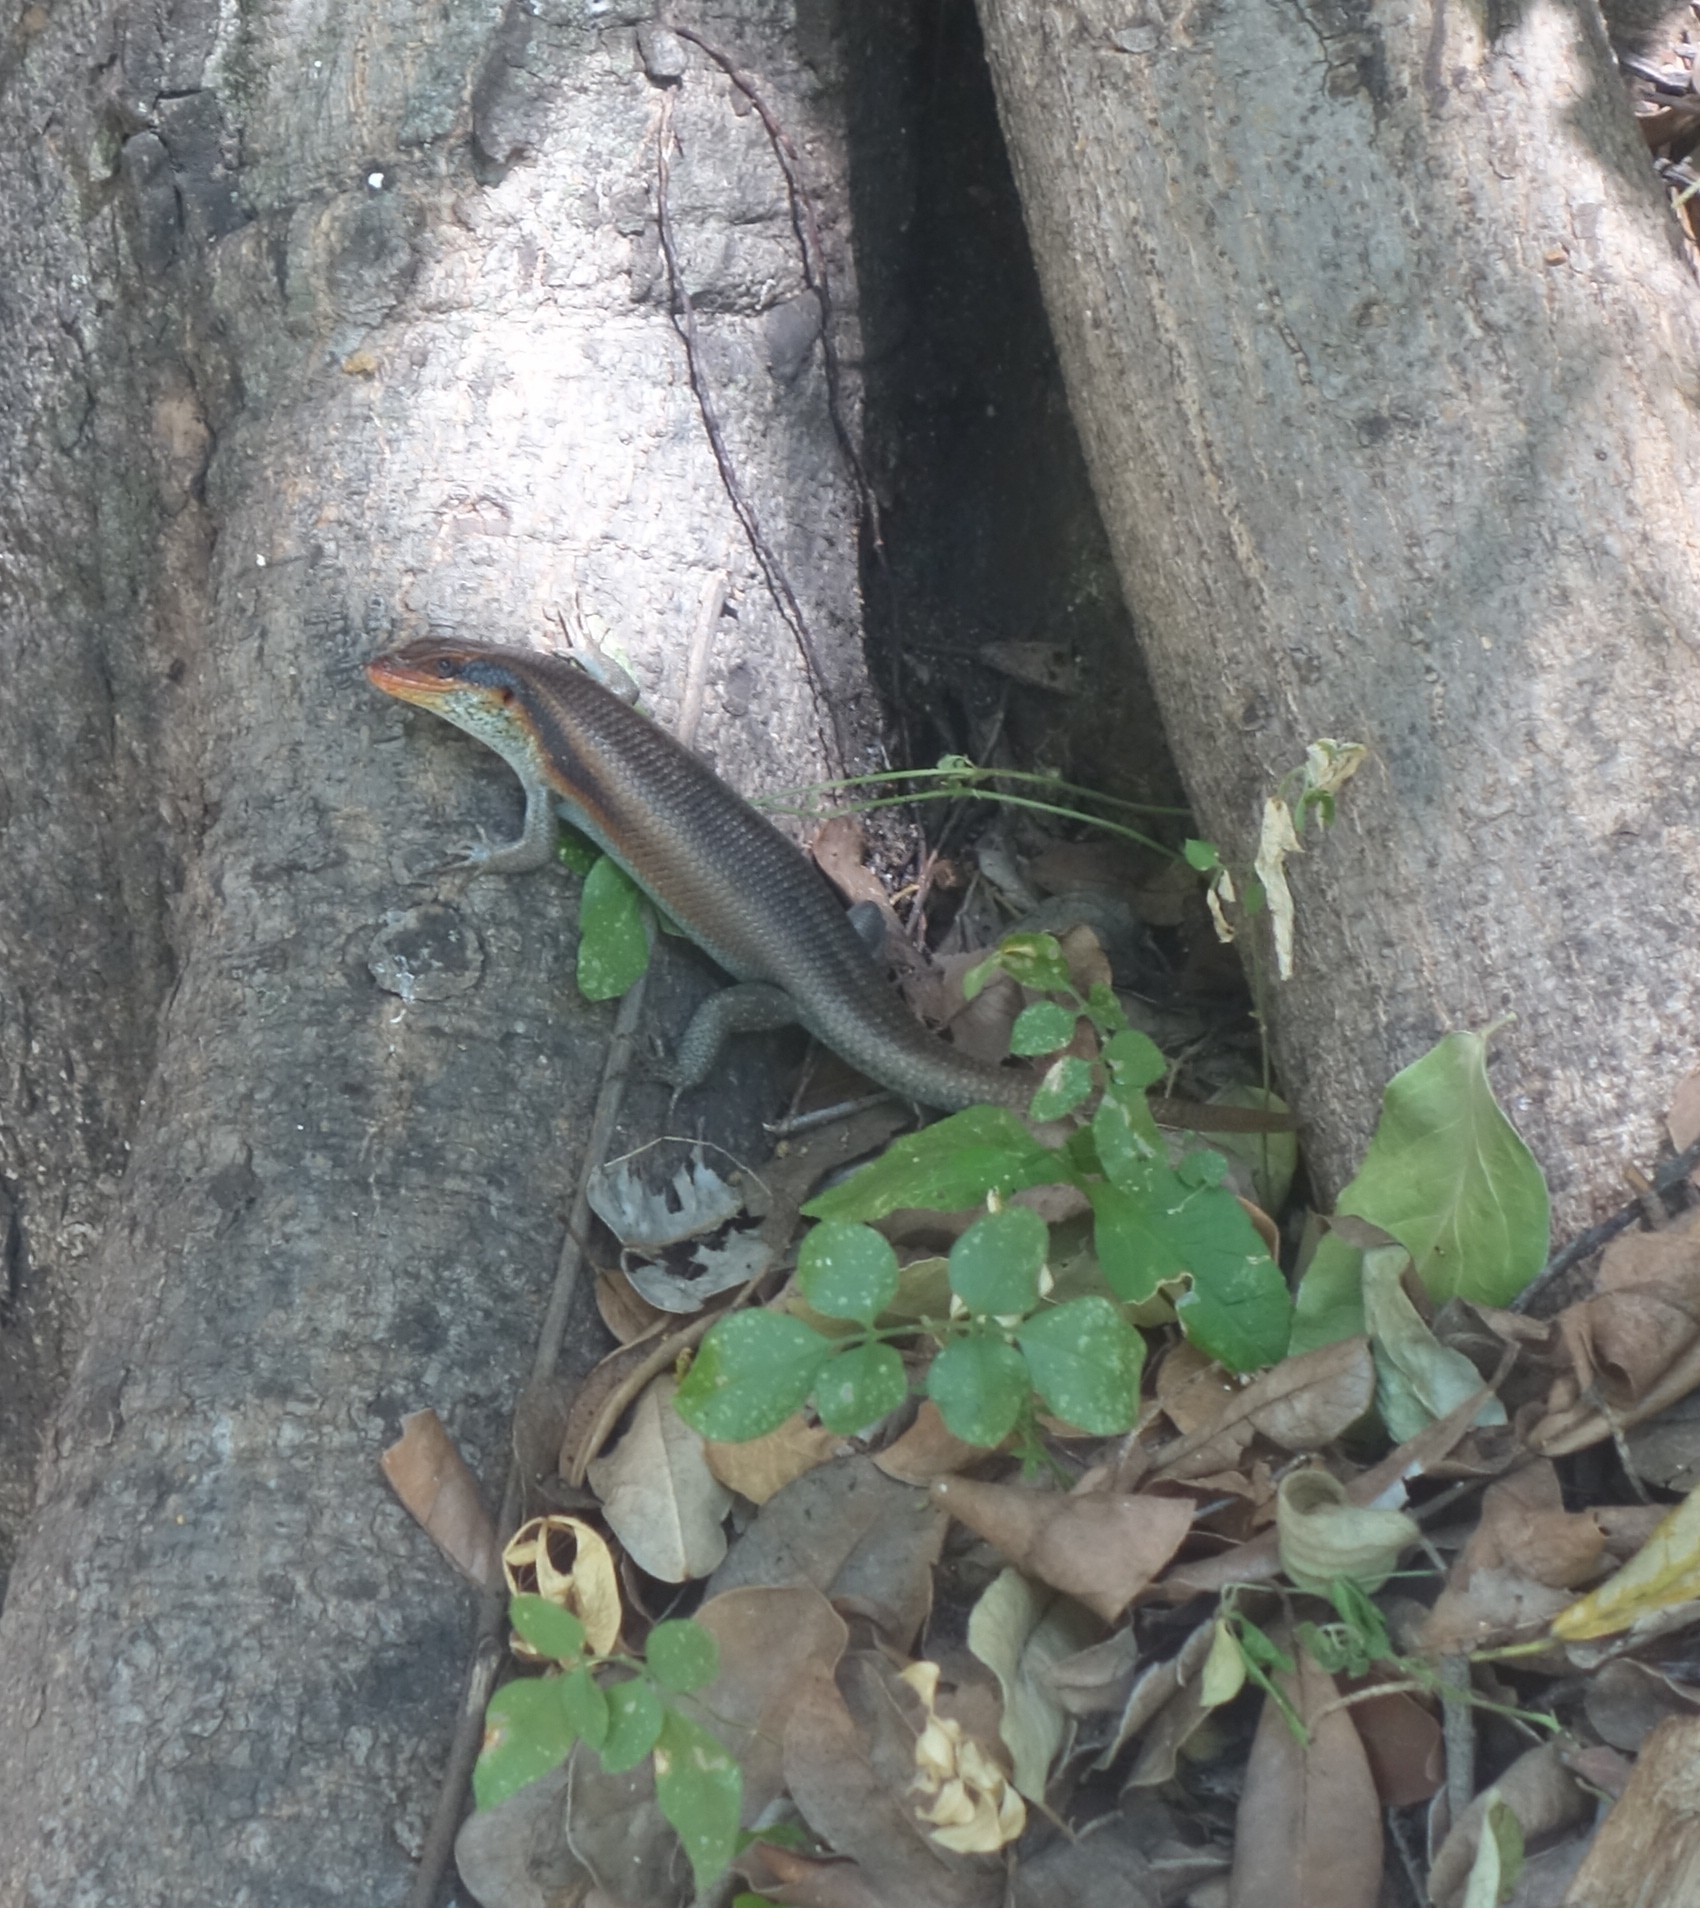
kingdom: Animalia
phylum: Chordata
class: Squamata
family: Scincidae
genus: Trachylepis
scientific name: Trachylepis wahlbergii
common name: Wahlberg’s striped skink
